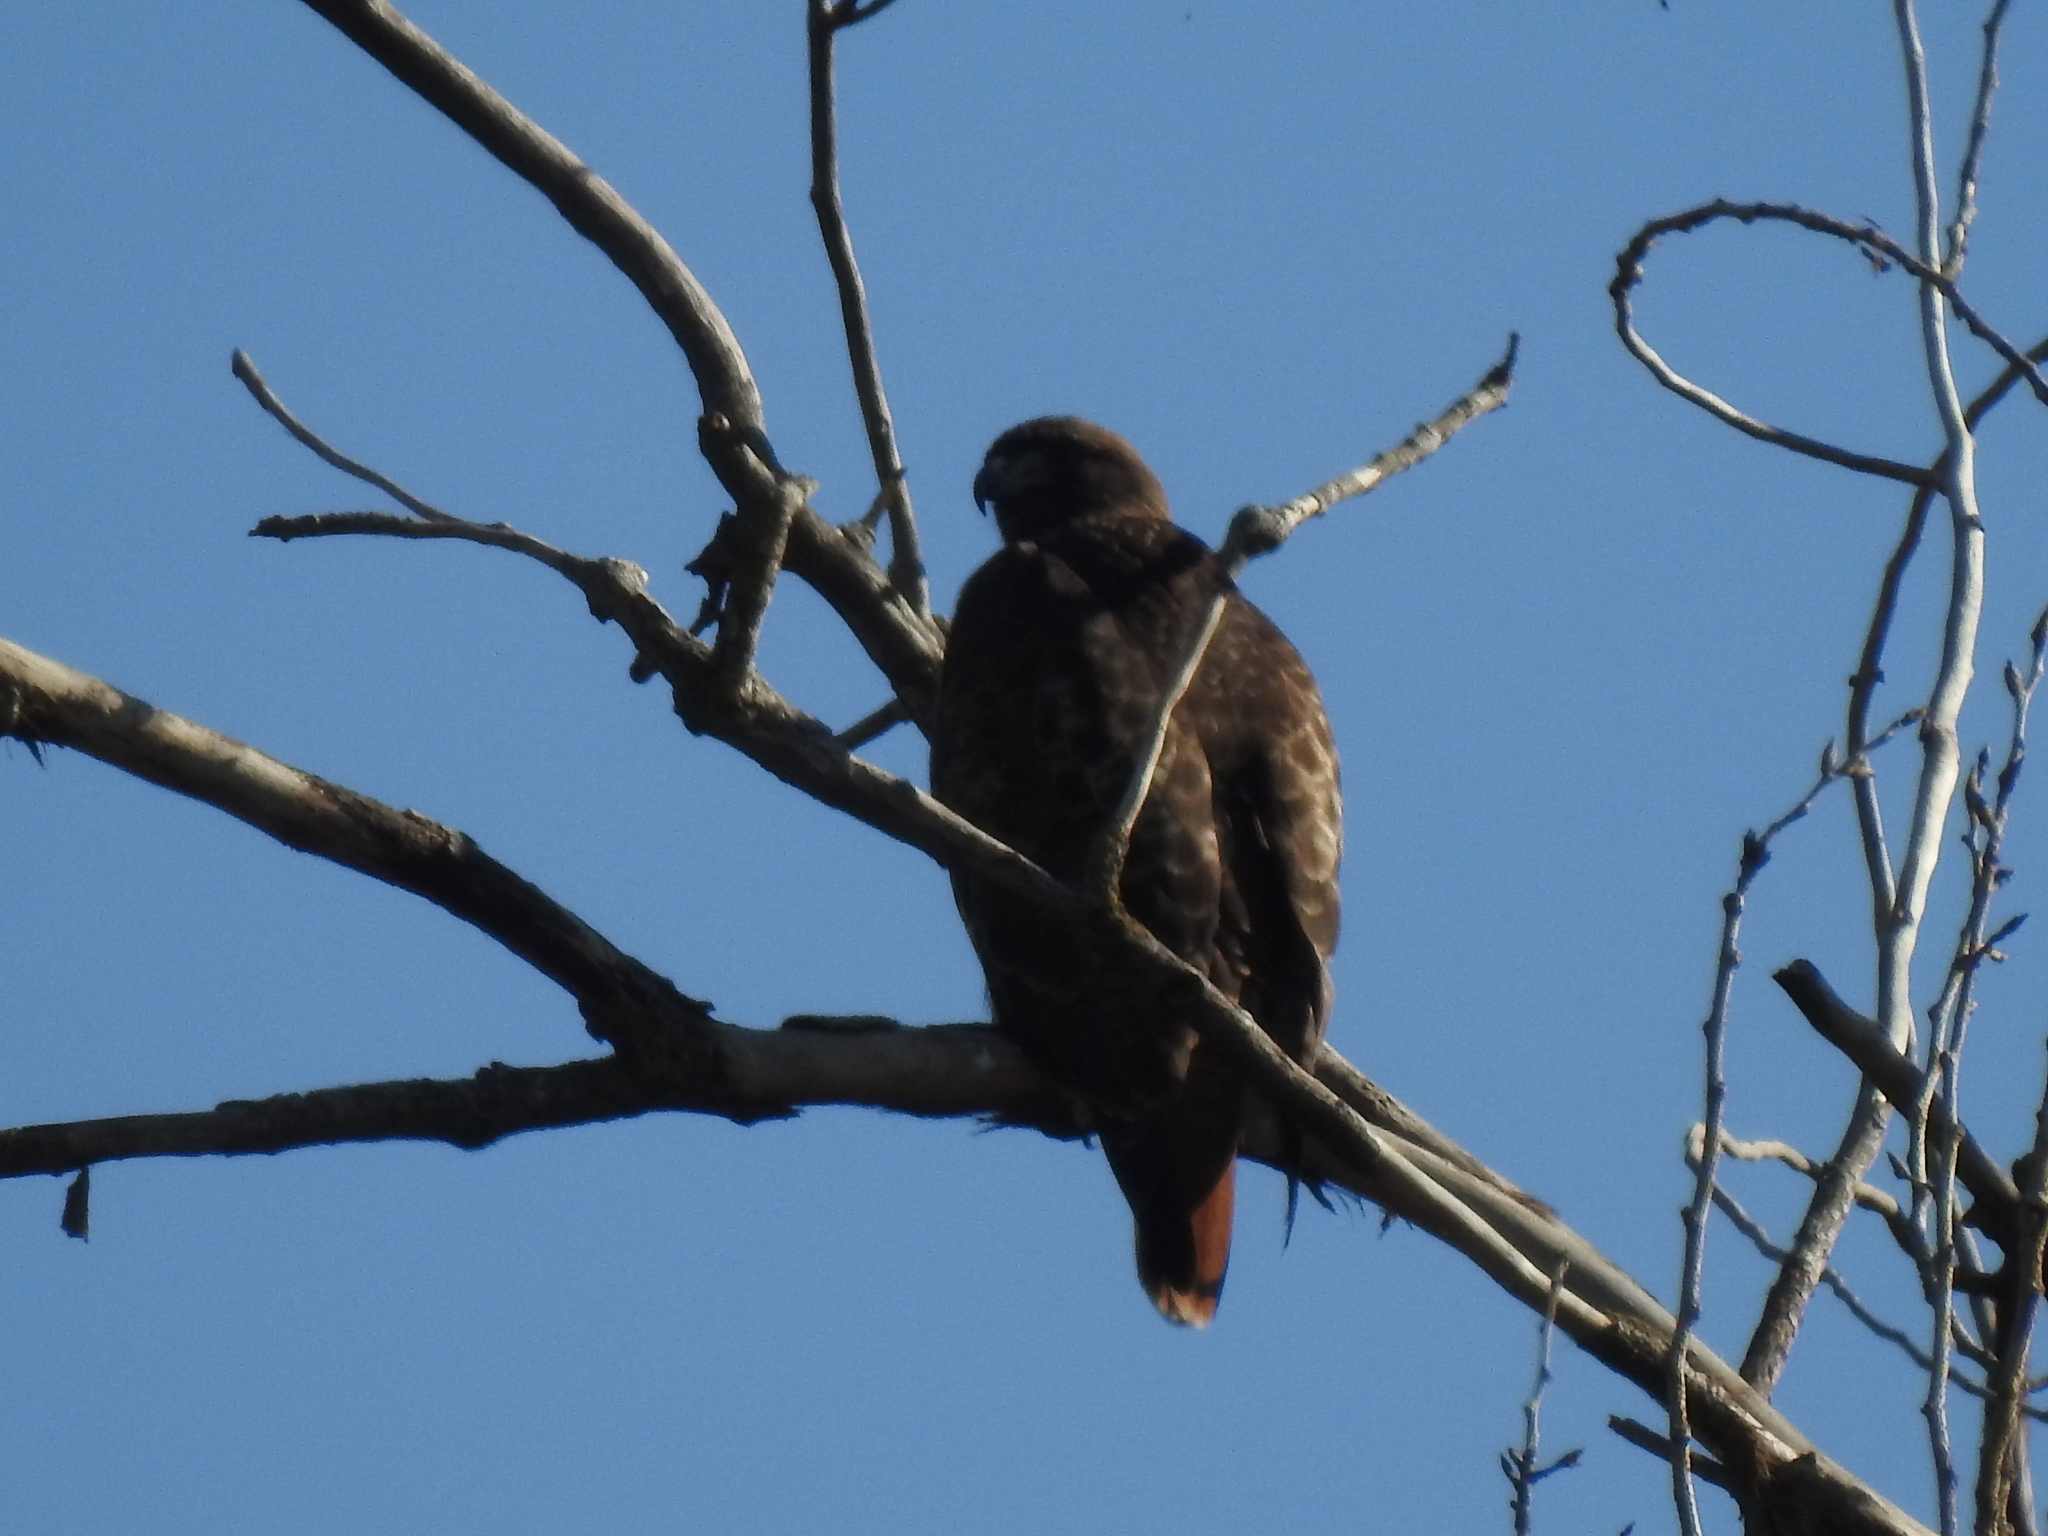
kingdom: Animalia
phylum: Chordata
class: Aves
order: Accipitriformes
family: Accipitridae
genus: Buteo
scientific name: Buteo jamaicensis
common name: Red-tailed hawk
